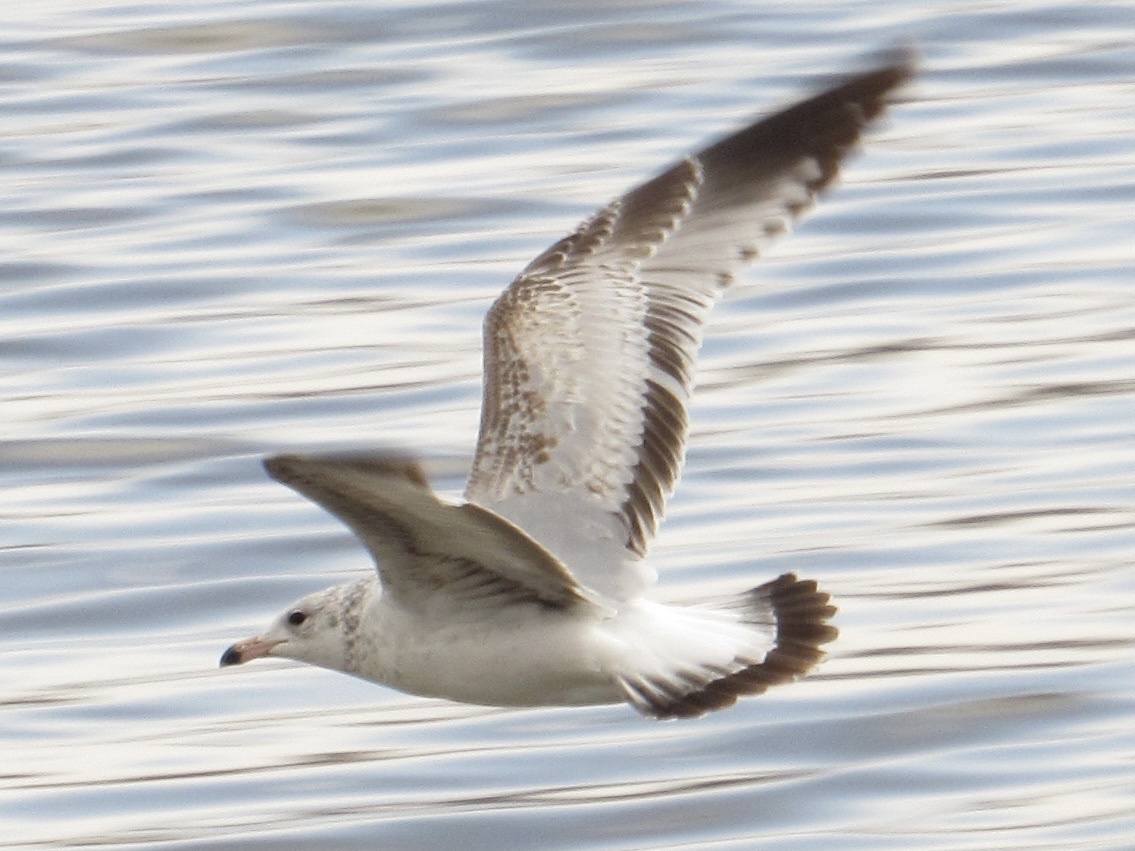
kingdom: Animalia
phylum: Chordata
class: Aves
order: Charadriiformes
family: Laridae
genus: Larus
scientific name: Larus delawarensis
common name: Ring-billed gull
